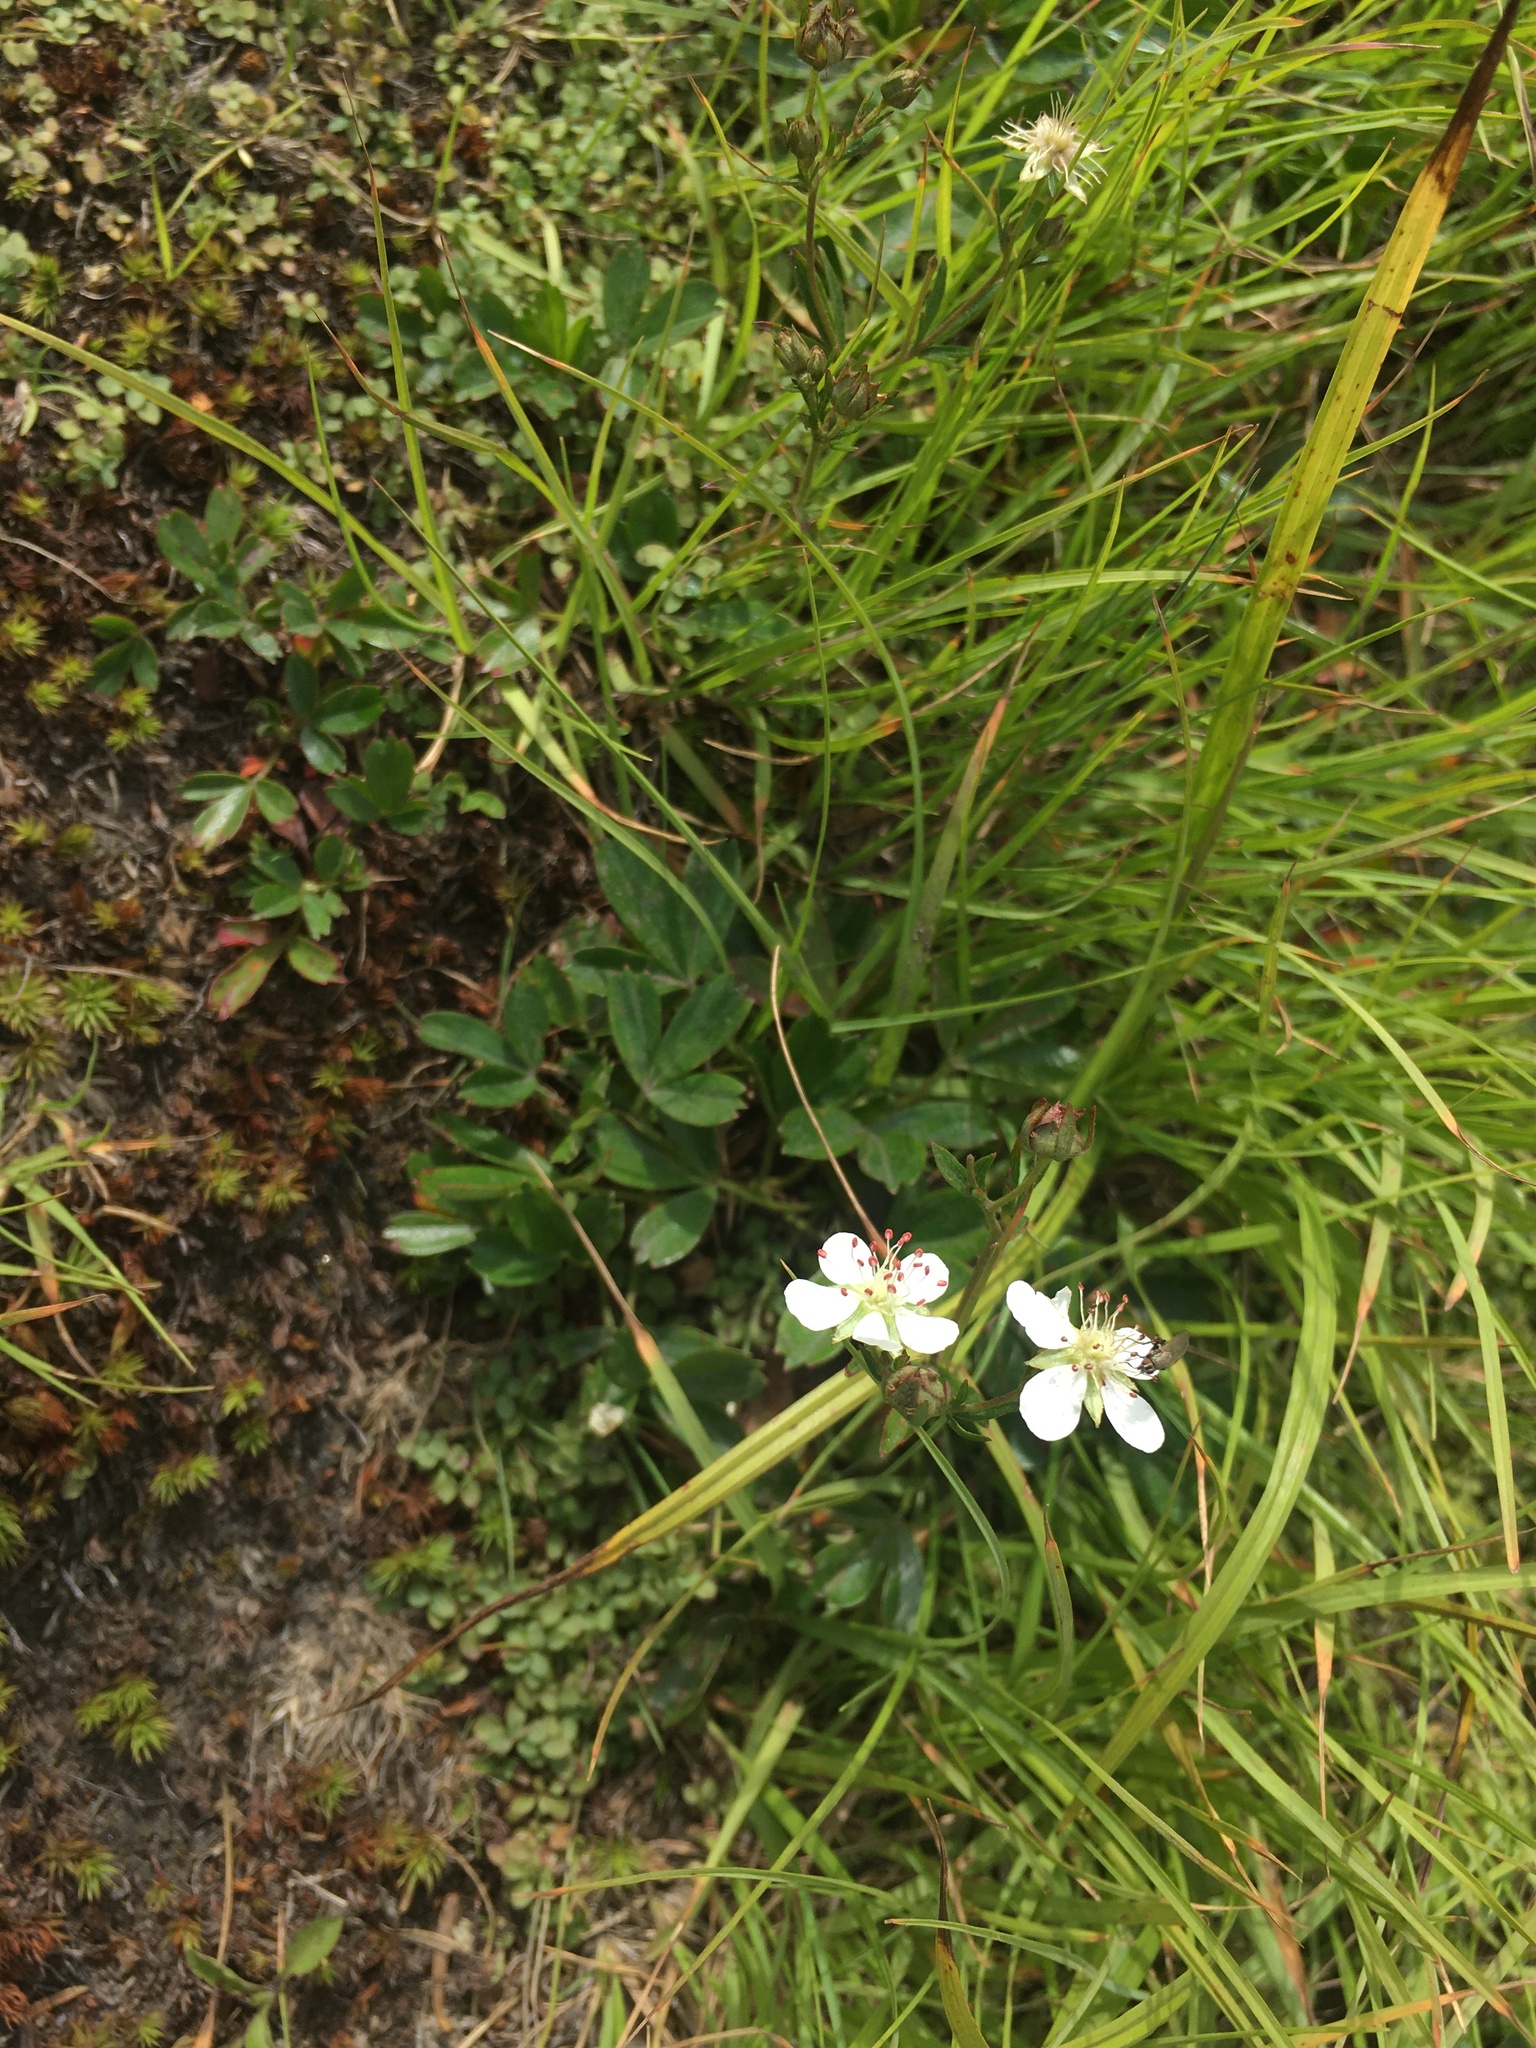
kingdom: Plantae
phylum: Tracheophyta
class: Magnoliopsida
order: Rosales
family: Rosaceae
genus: Sibbaldia
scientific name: Sibbaldia tridentata
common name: Three-toothed cinquefoil
